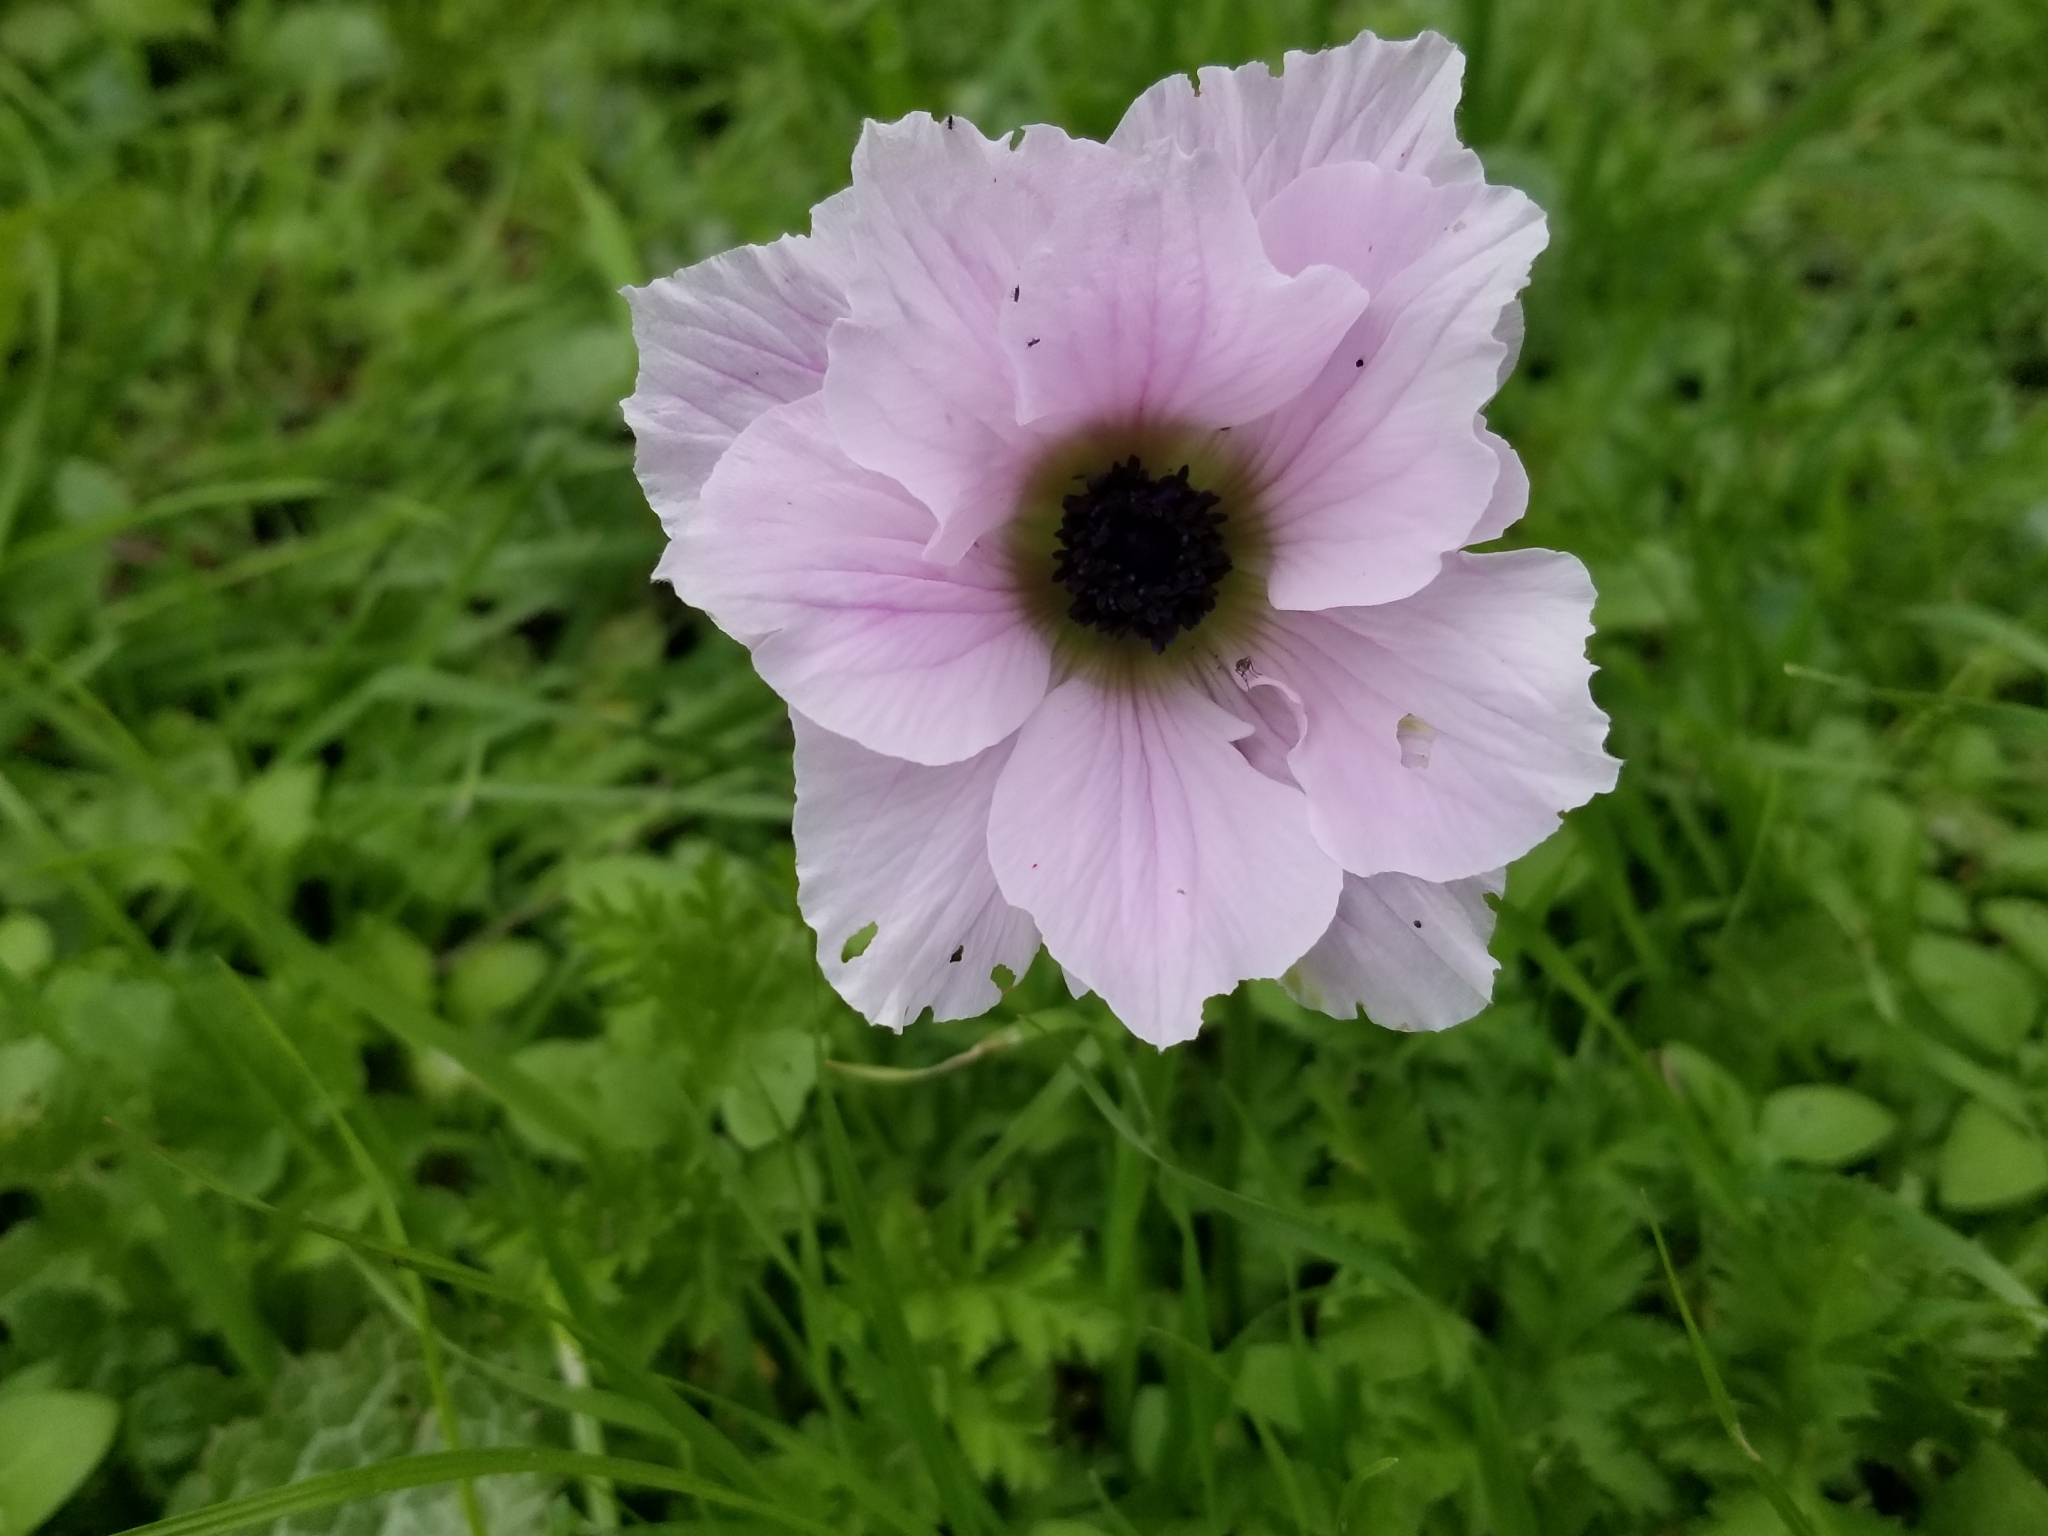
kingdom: Plantae
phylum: Tracheophyta
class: Magnoliopsida
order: Ranunculales
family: Ranunculaceae
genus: Anemone
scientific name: Anemone coronaria
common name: Poppy anemone
